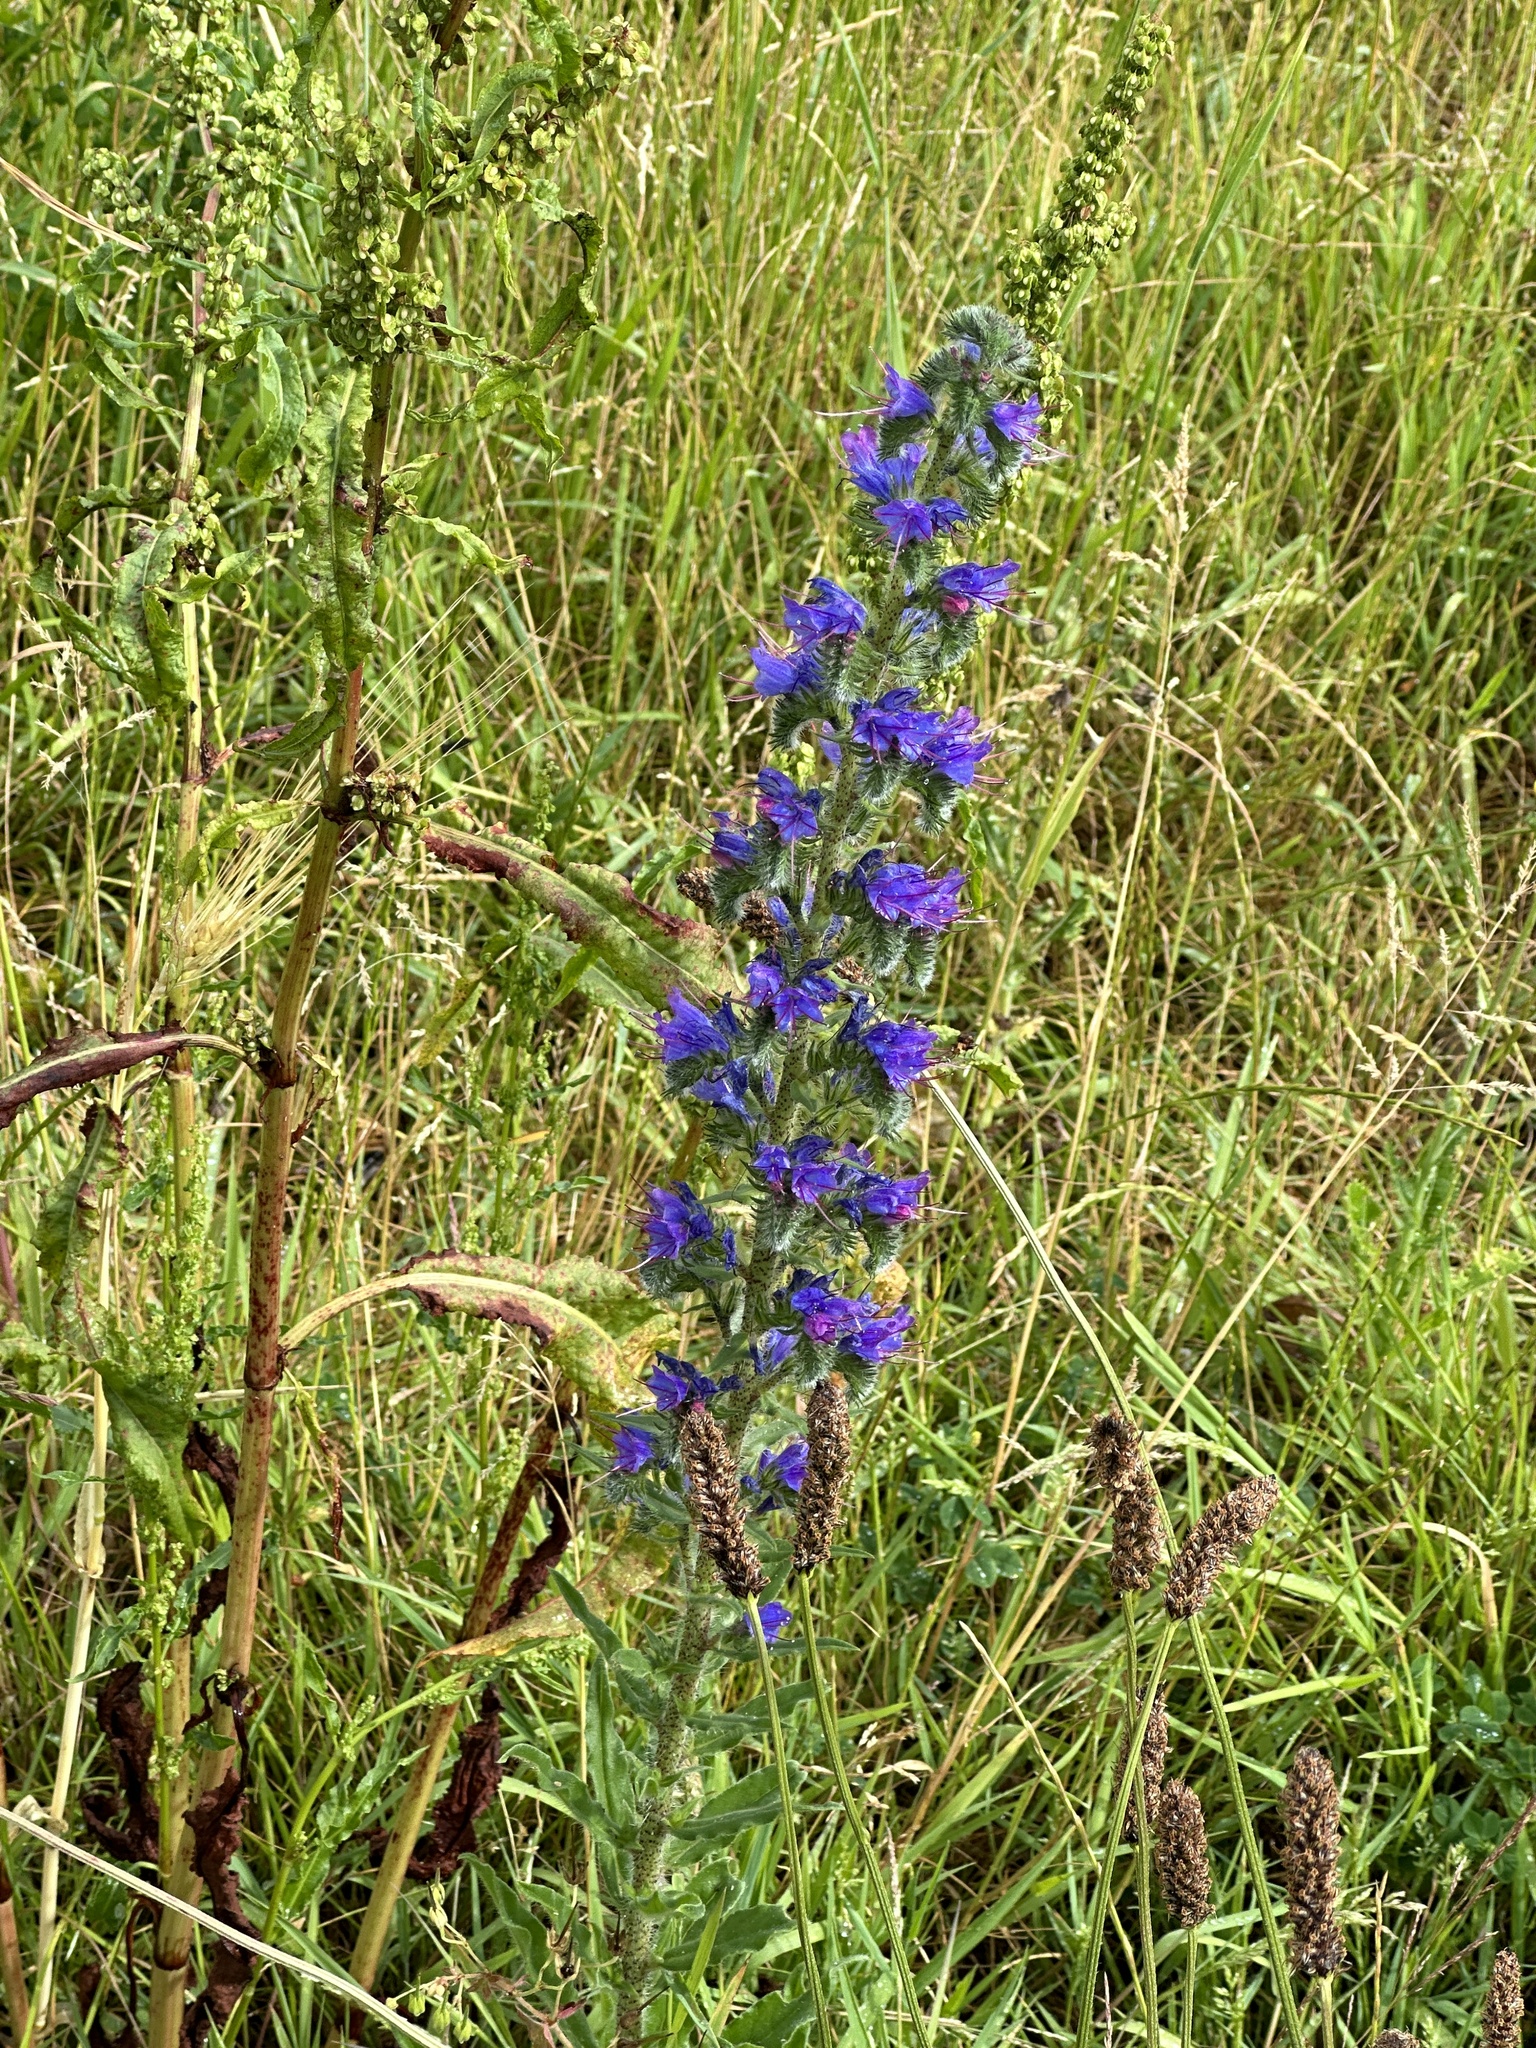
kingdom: Plantae
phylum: Tracheophyta
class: Magnoliopsida
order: Boraginales
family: Boraginaceae
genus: Echium
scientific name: Echium vulgare
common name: Common viper's bugloss
